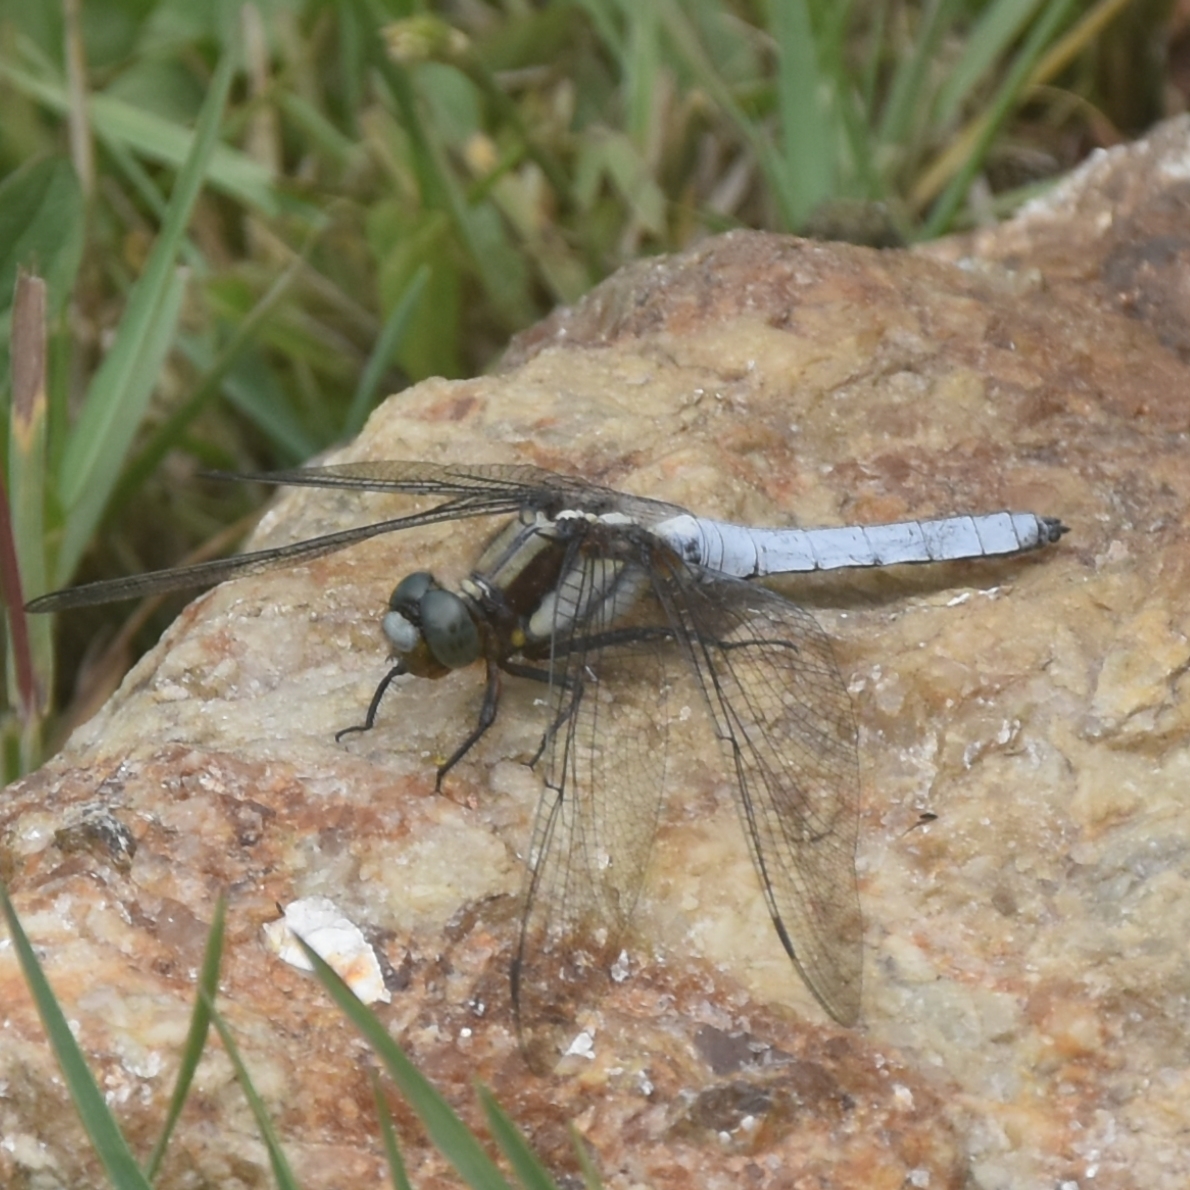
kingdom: Animalia
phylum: Arthropoda
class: Insecta
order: Odonata
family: Libellulidae
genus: Orthetrum
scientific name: Orthetrum internum
